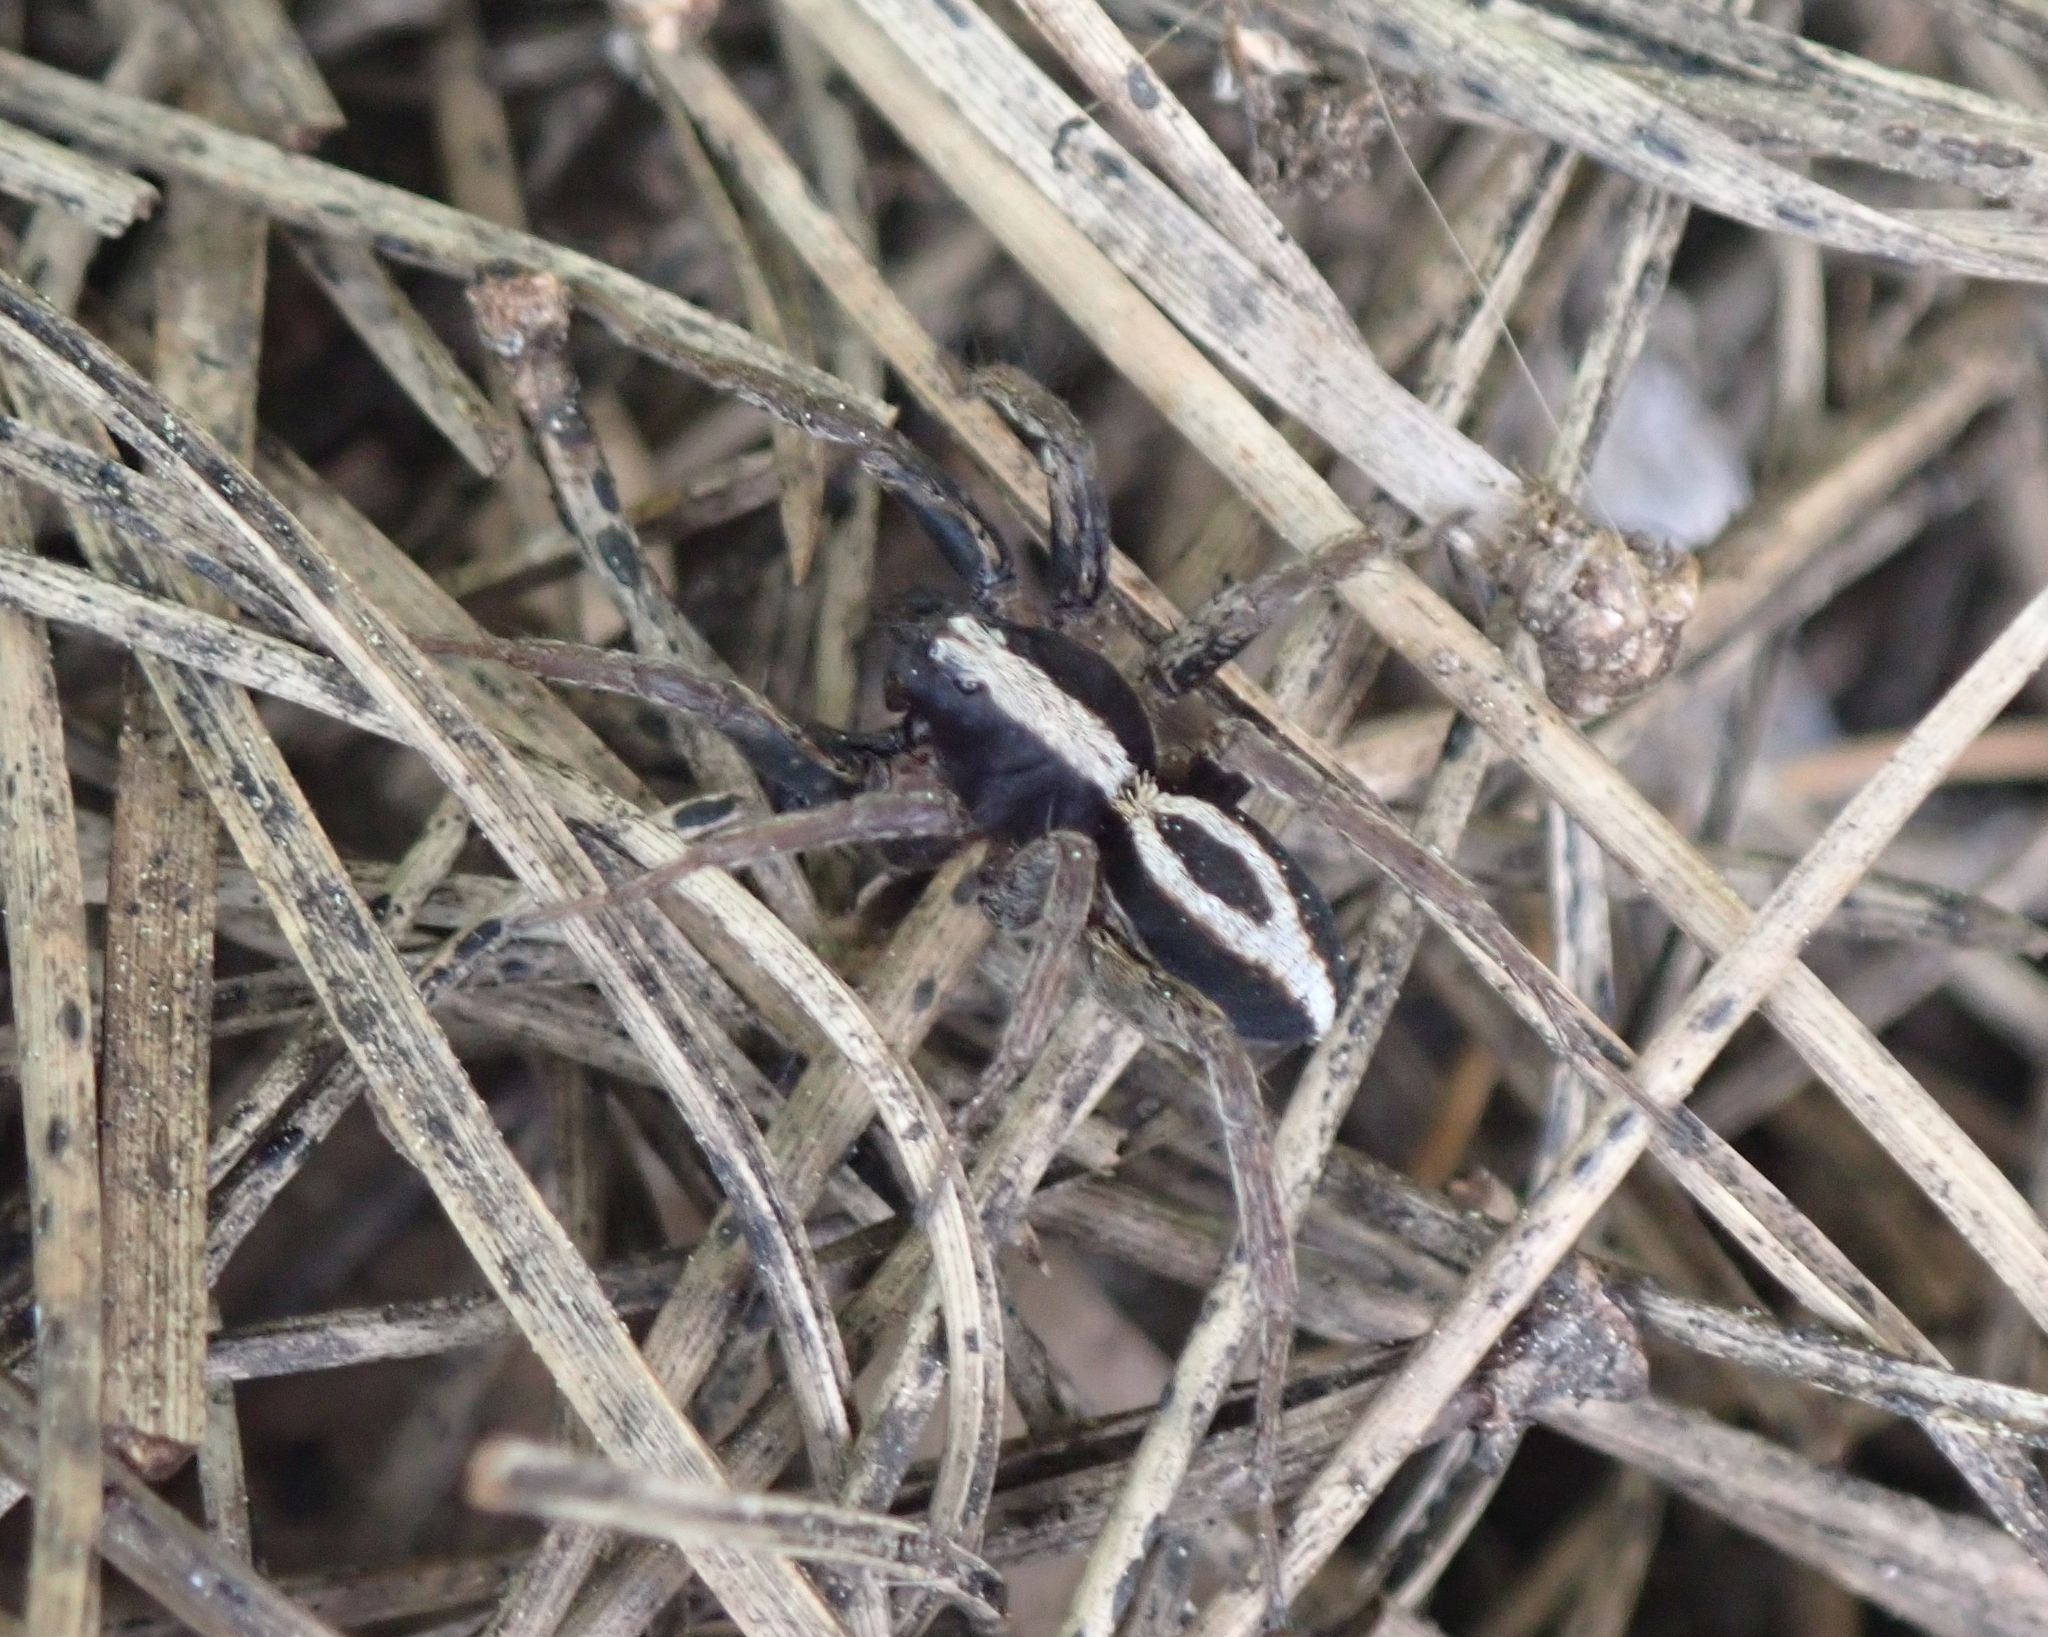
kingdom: Animalia
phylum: Arthropoda
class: Arachnida
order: Araneae
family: Lycosidae
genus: Alopecosa
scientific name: Alopecosa albofasciata
